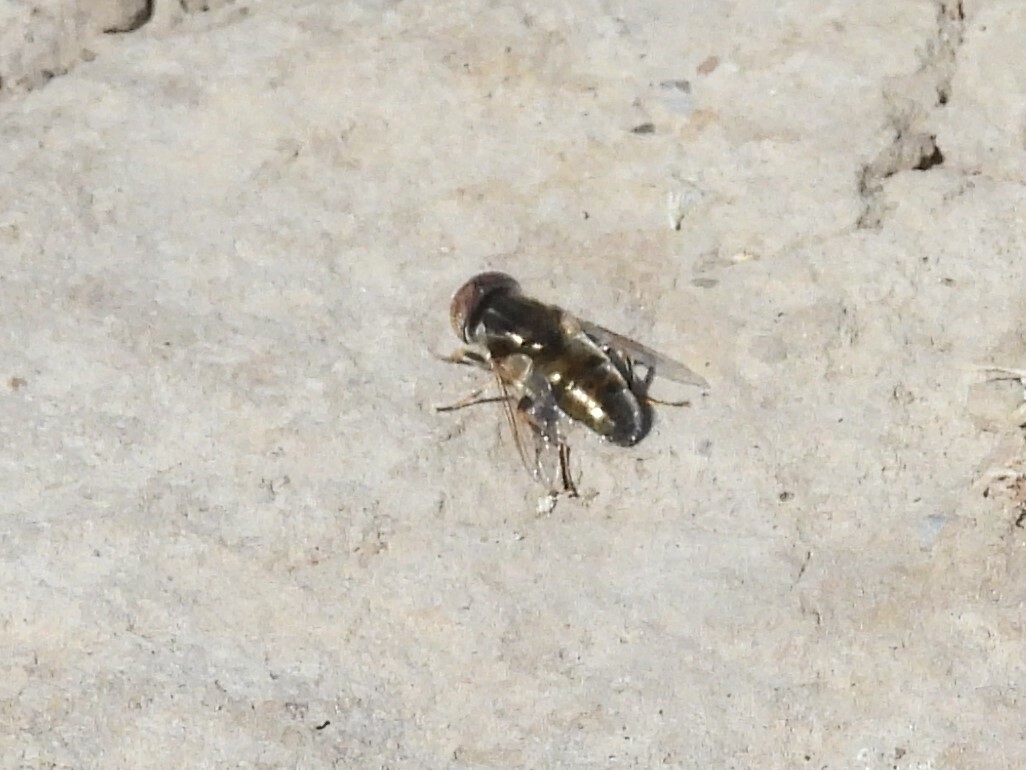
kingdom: Animalia
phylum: Arthropoda
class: Insecta
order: Diptera
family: Syrphidae
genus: Eristalinus
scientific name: Eristalinus aeneus
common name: Syrphid fly
